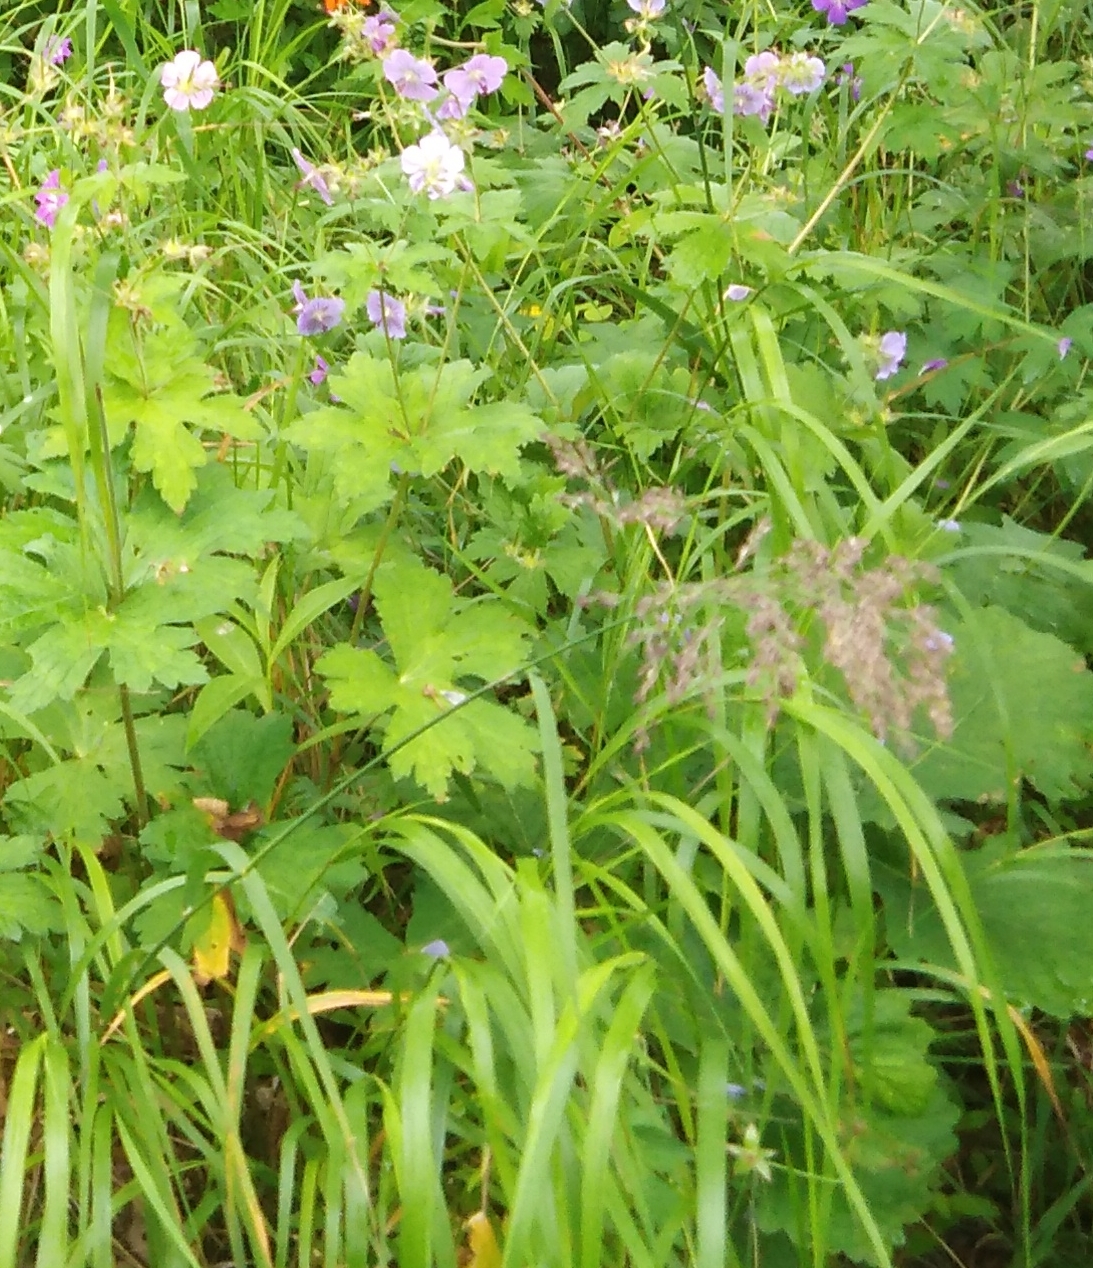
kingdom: Plantae
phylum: Tracheophyta
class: Magnoliopsida
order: Geraniales
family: Geraniaceae
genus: Geranium
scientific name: Geranium platyanthum
